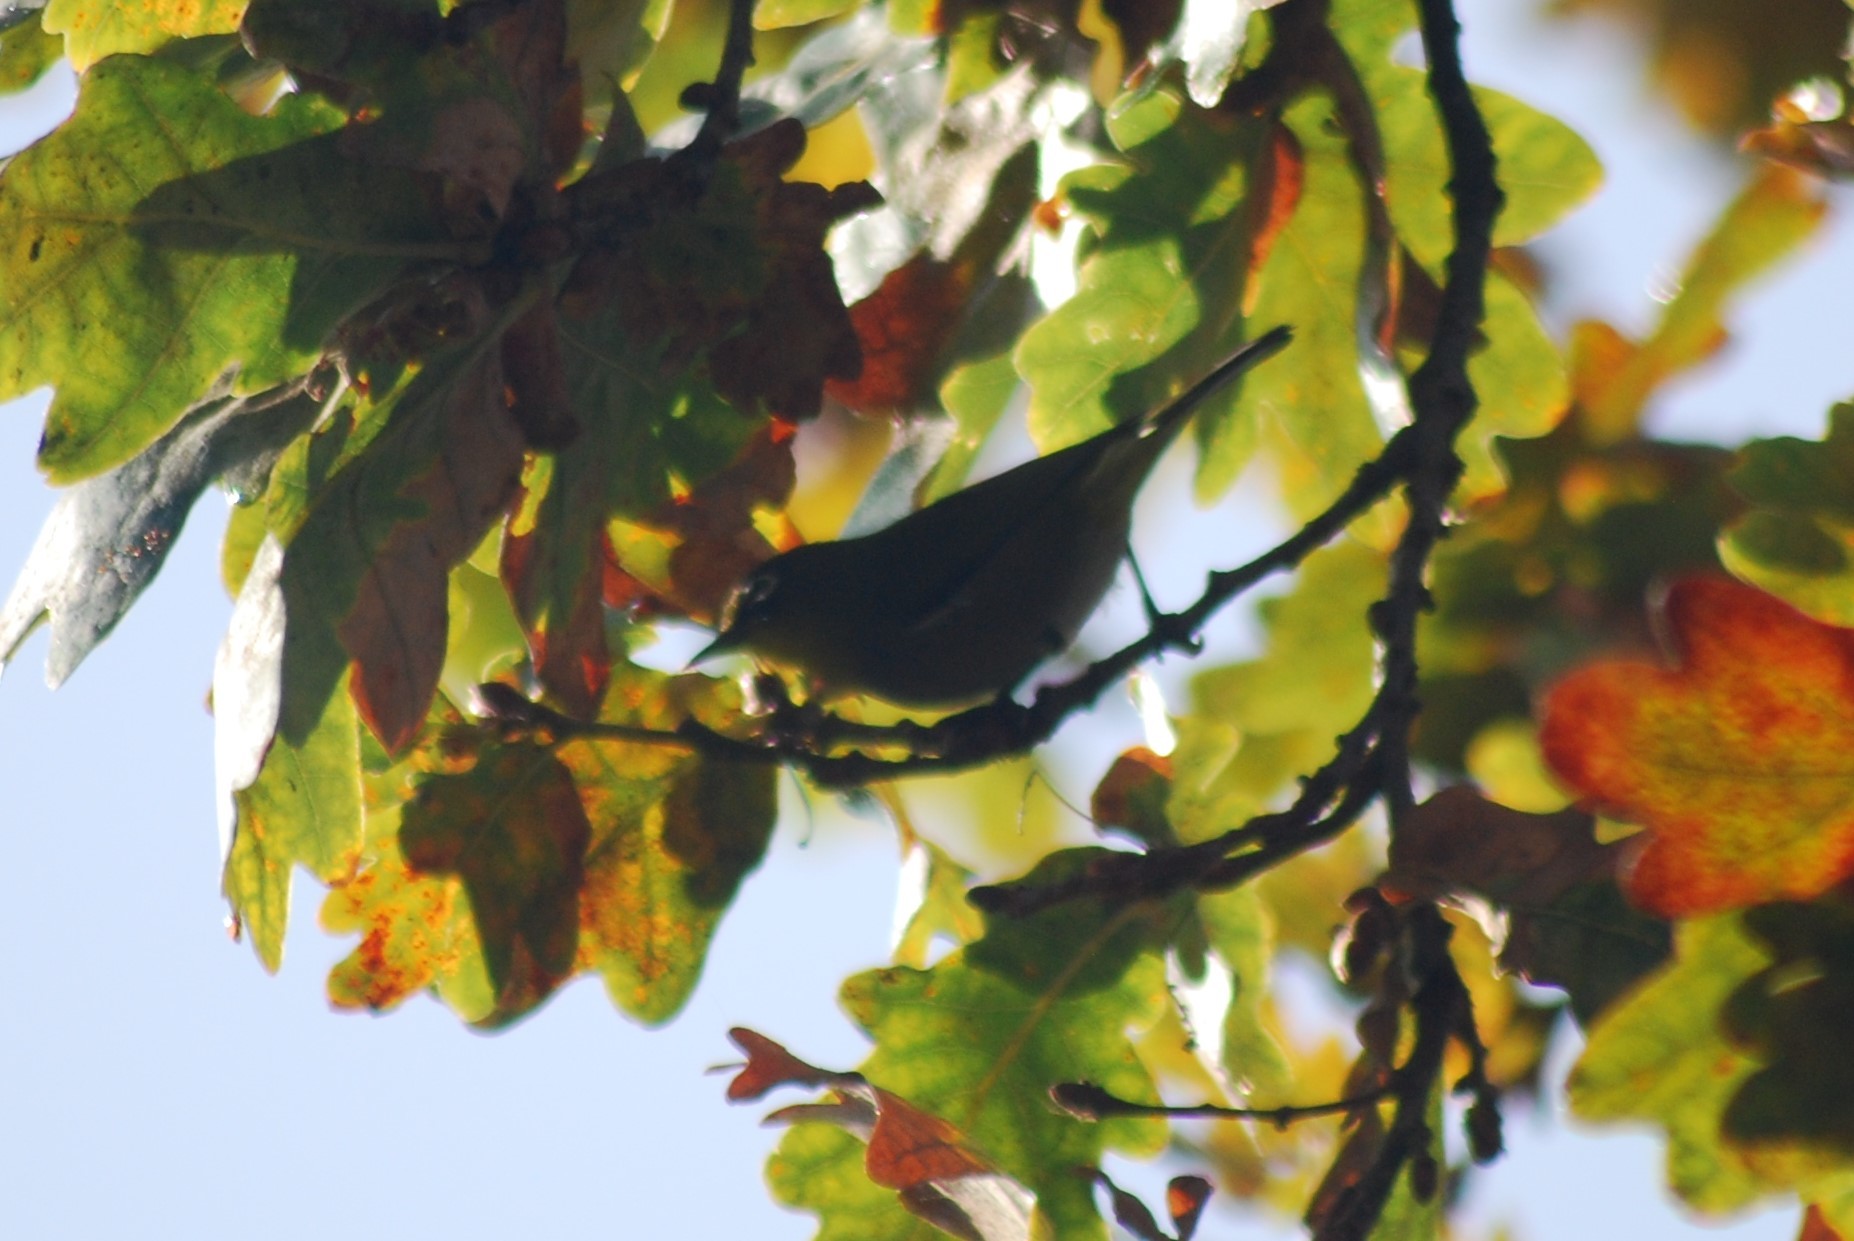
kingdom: Animalia
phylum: Chordata
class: Aves
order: Passeriformes
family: Zosteropidae
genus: Zosterops
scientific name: Zosterops virens
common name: Cape white-eye
